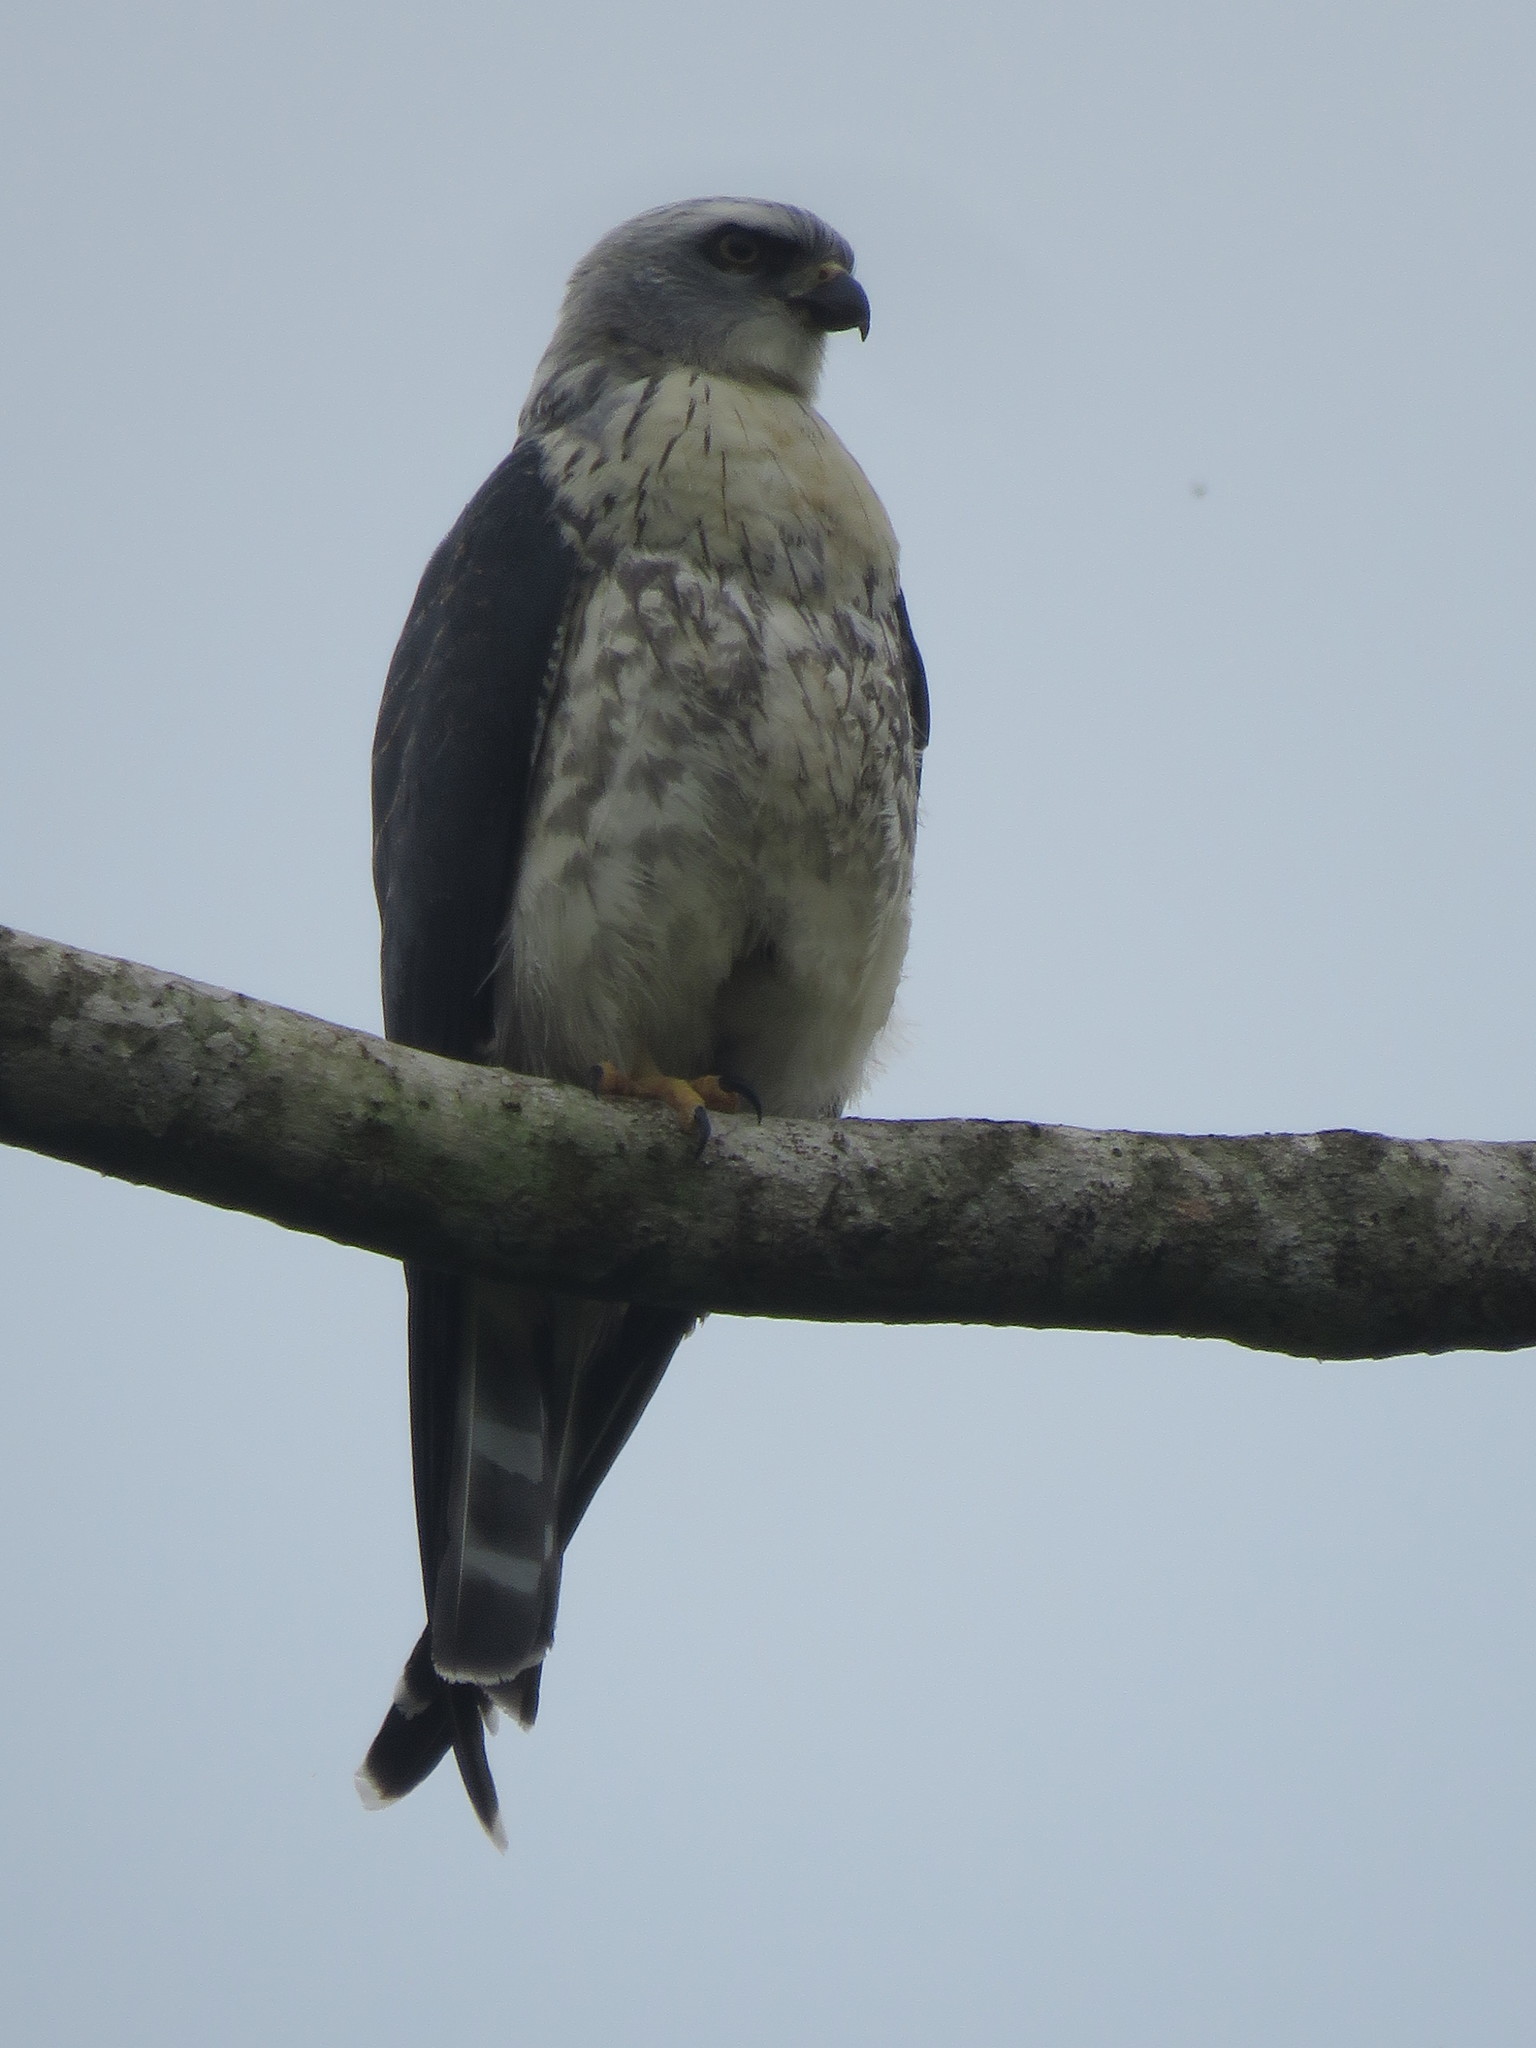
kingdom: Animalia
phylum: Chordata
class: Aves
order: Accipitriformes
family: Accipitridae
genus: Ictinia
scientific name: Ictinia plumbea
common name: Plumbeous kite
